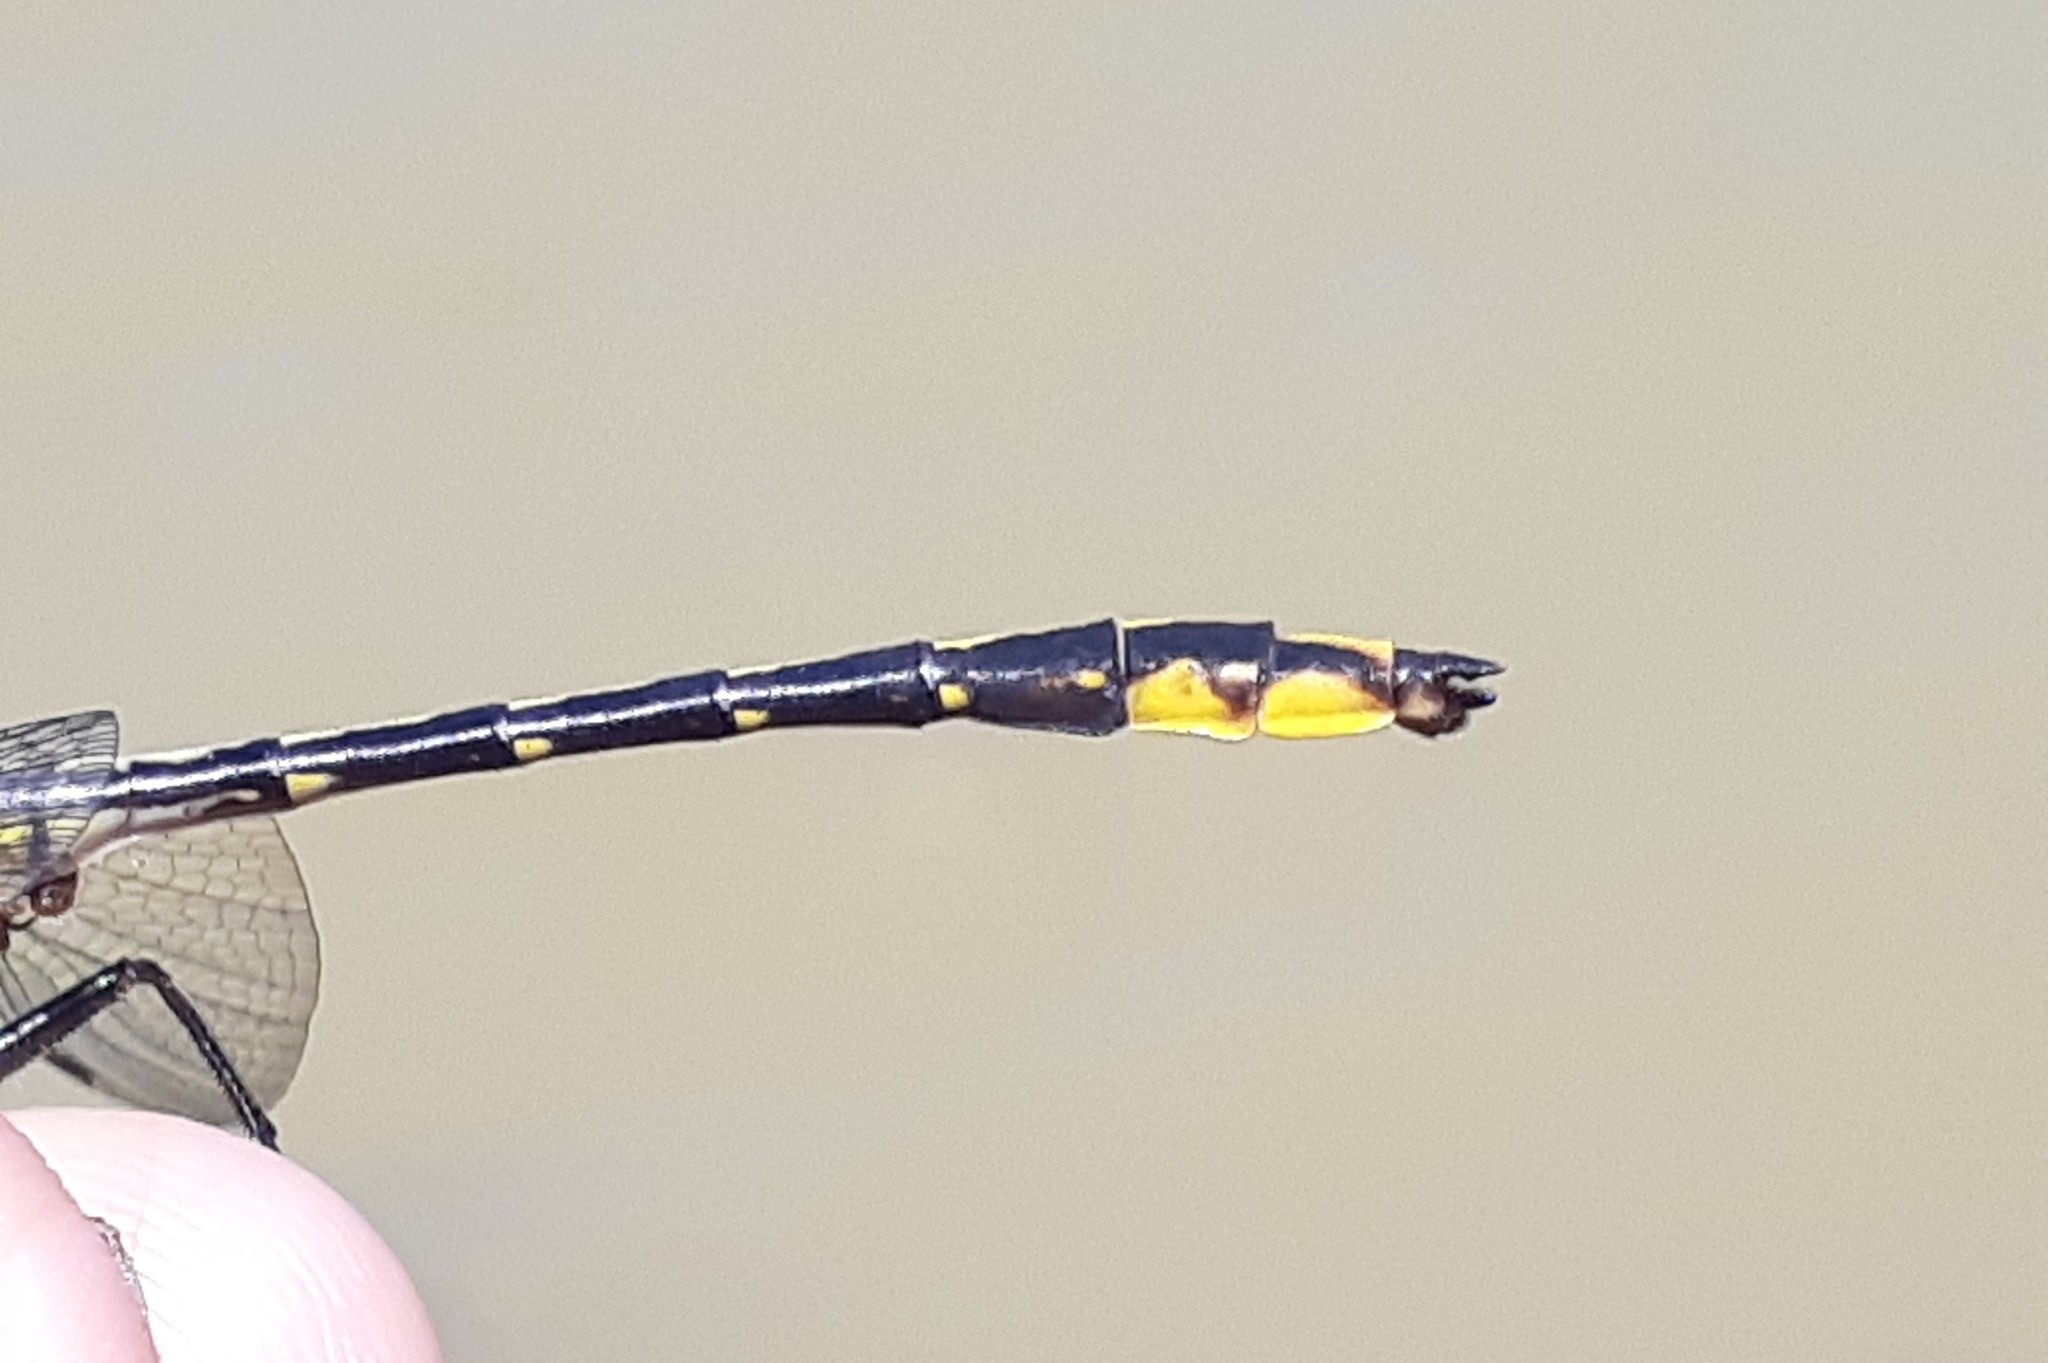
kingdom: Animalia
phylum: Arthropoda
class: Insecta
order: Odonata
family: Gomphidae
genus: Phanogomphus
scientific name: Phanogomphus exilis
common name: Lancet clubtail
